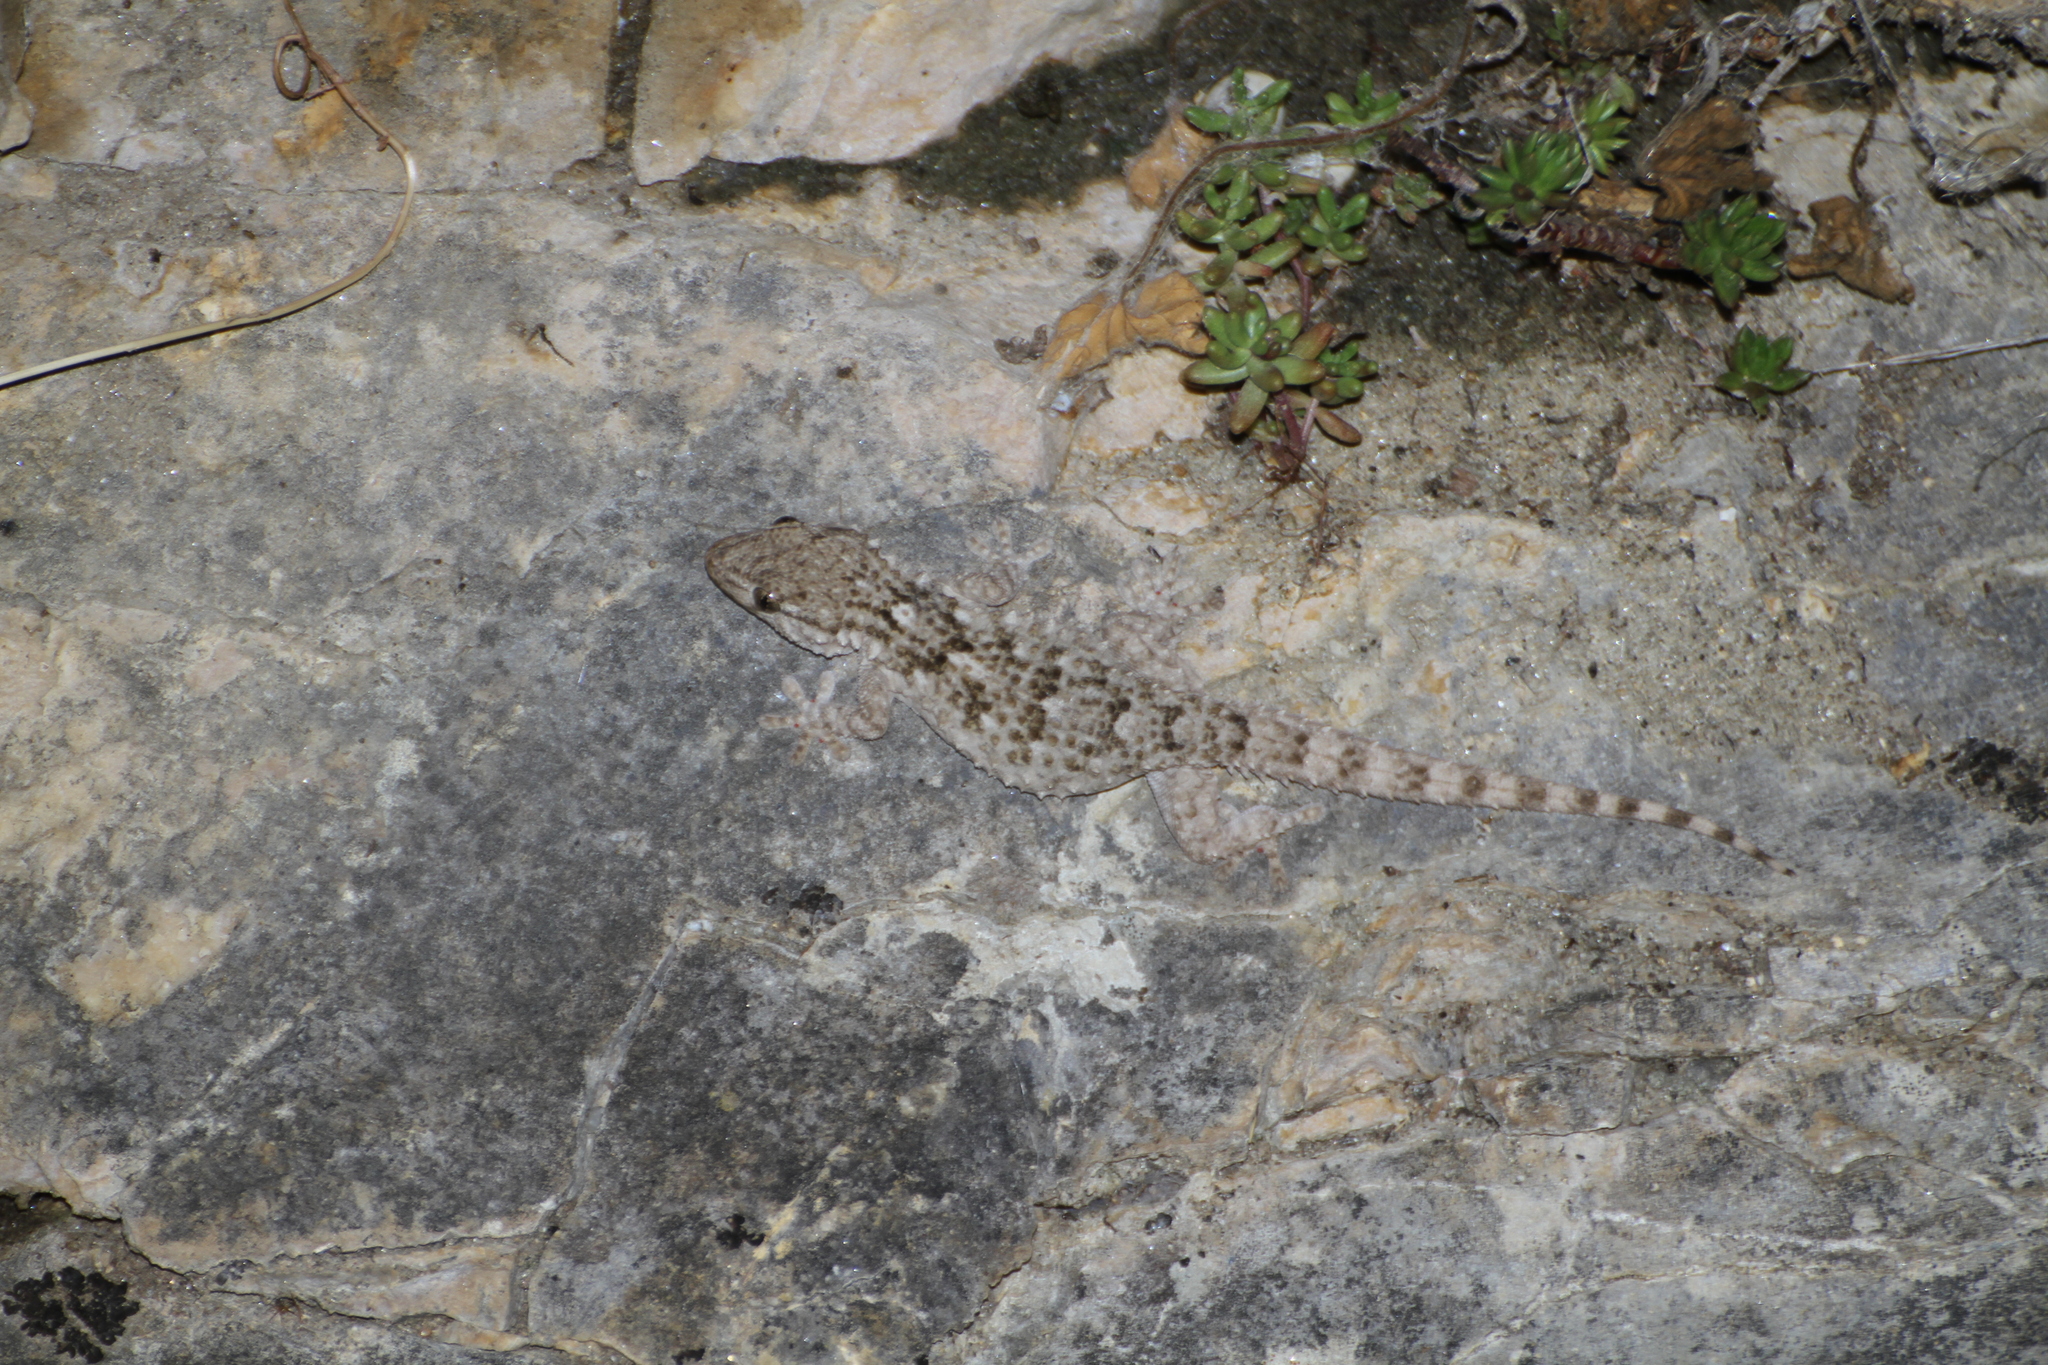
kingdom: Animalia
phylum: Chordata
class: Squamata
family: Phyllodactylidae
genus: Tarentola
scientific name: Tarentola mauritanica
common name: Moorish gecko
